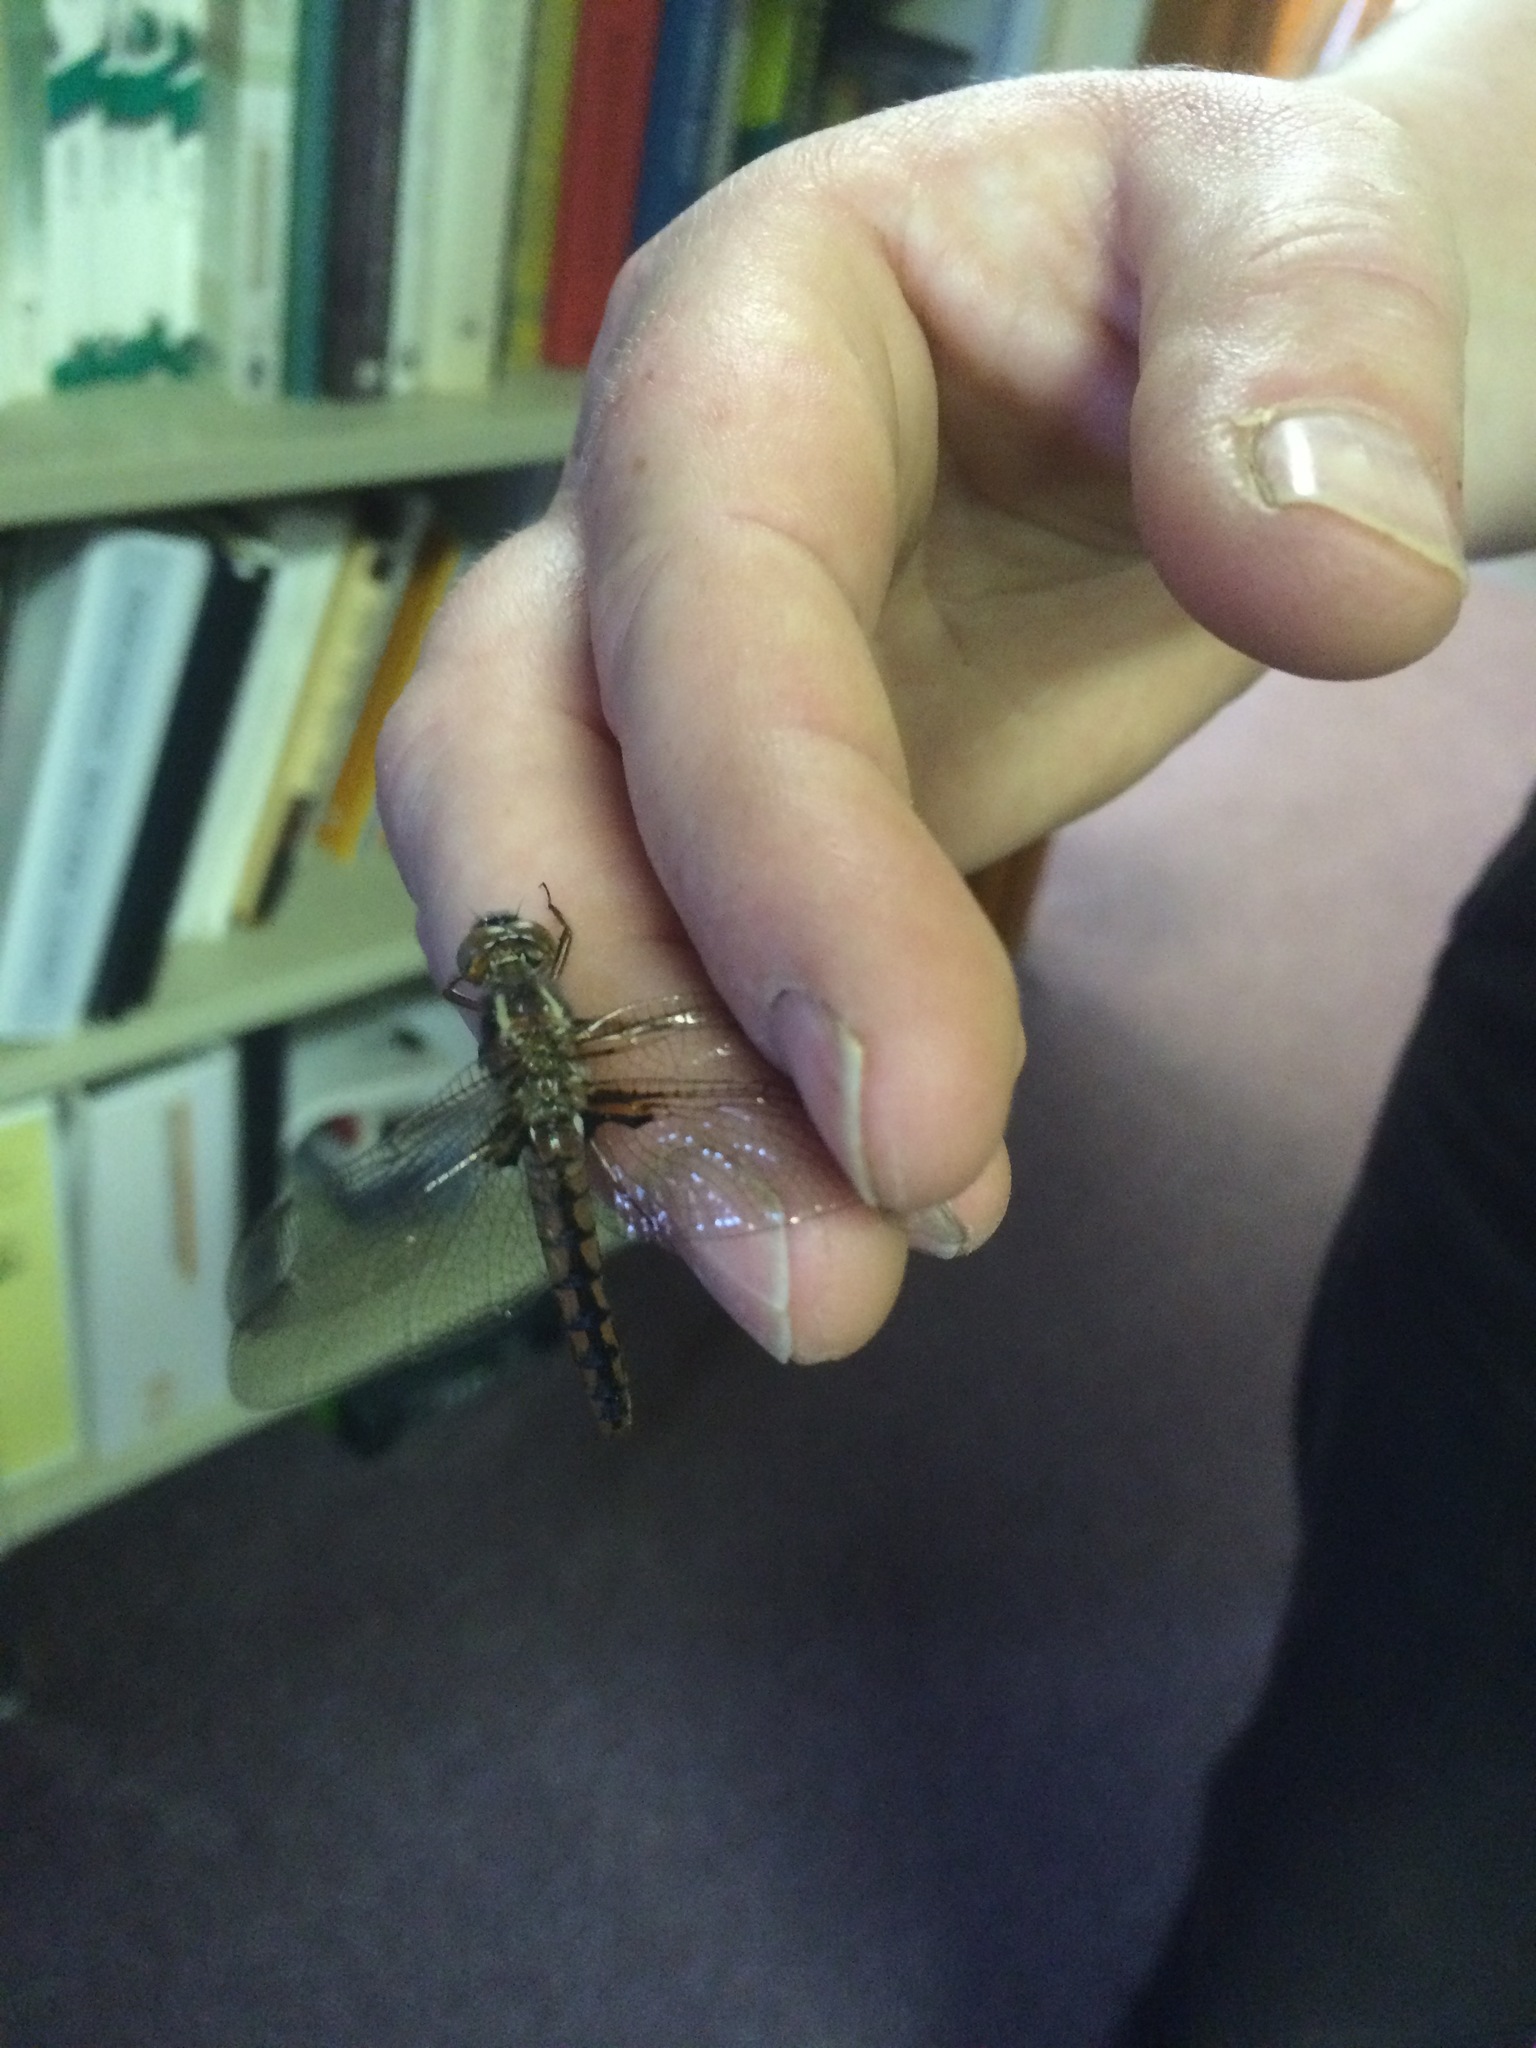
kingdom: Animalia
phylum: Arthropoda
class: Insecta
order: Odonata
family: Libellulidae
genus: Ladona
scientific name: Ladona deplanata
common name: Blue corporal
